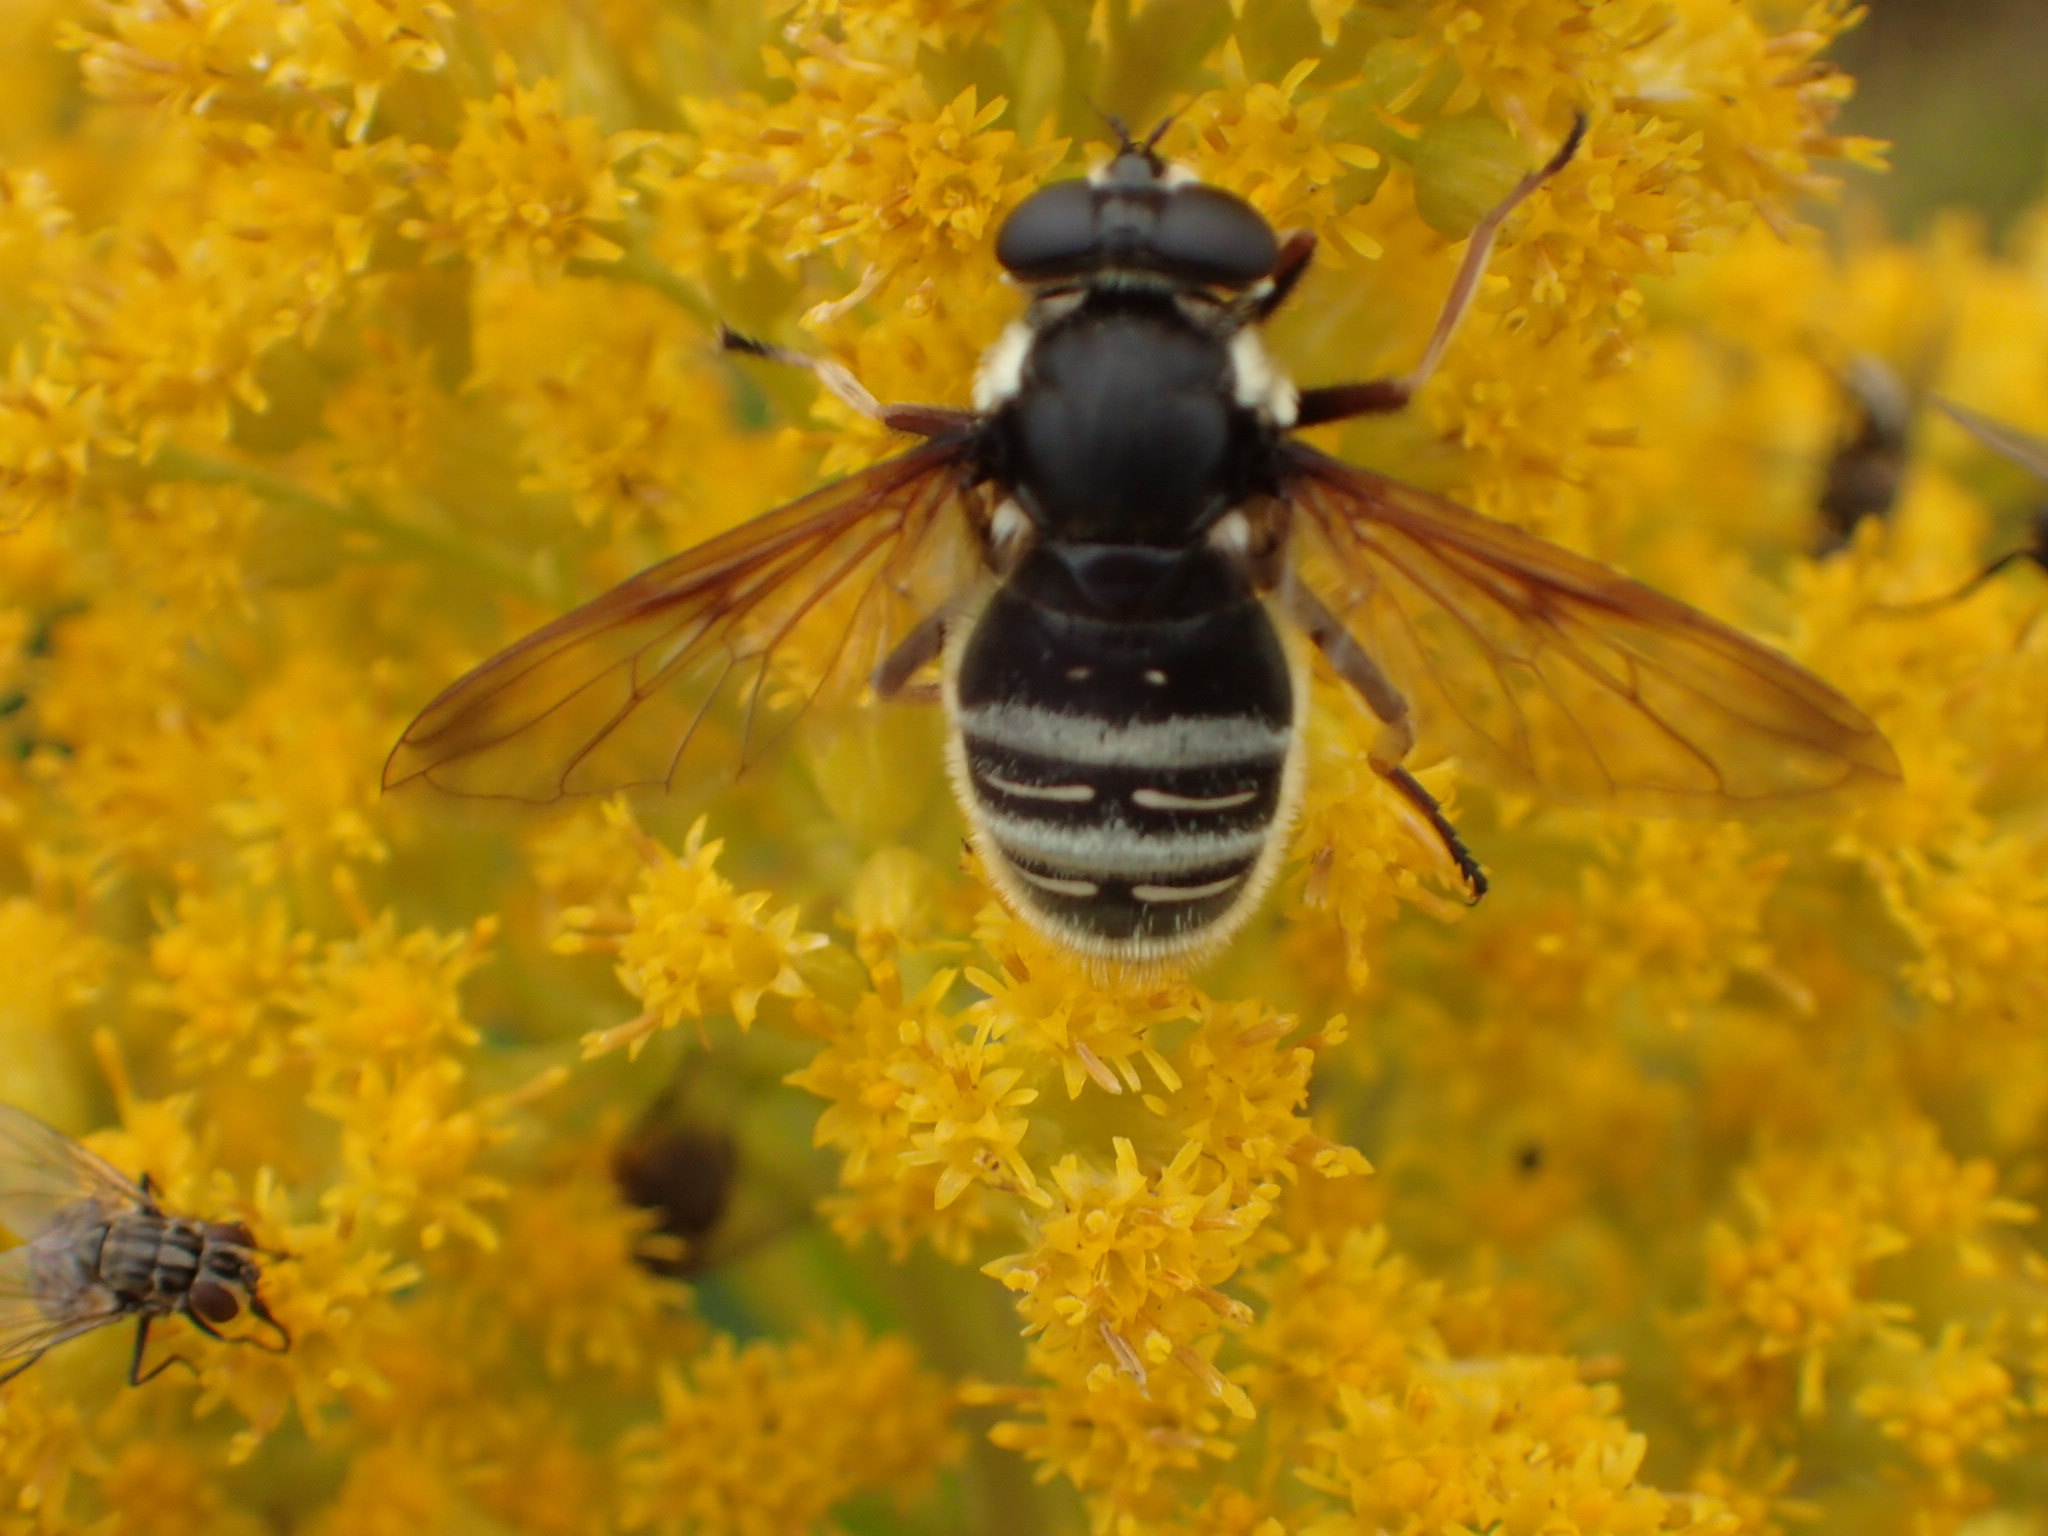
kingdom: Animalia
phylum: Arthropoda
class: Insecta
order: Diptera
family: Syrphidae
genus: Sericomyia
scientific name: Sericomyia militaris
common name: Narrow-banded pond fly
